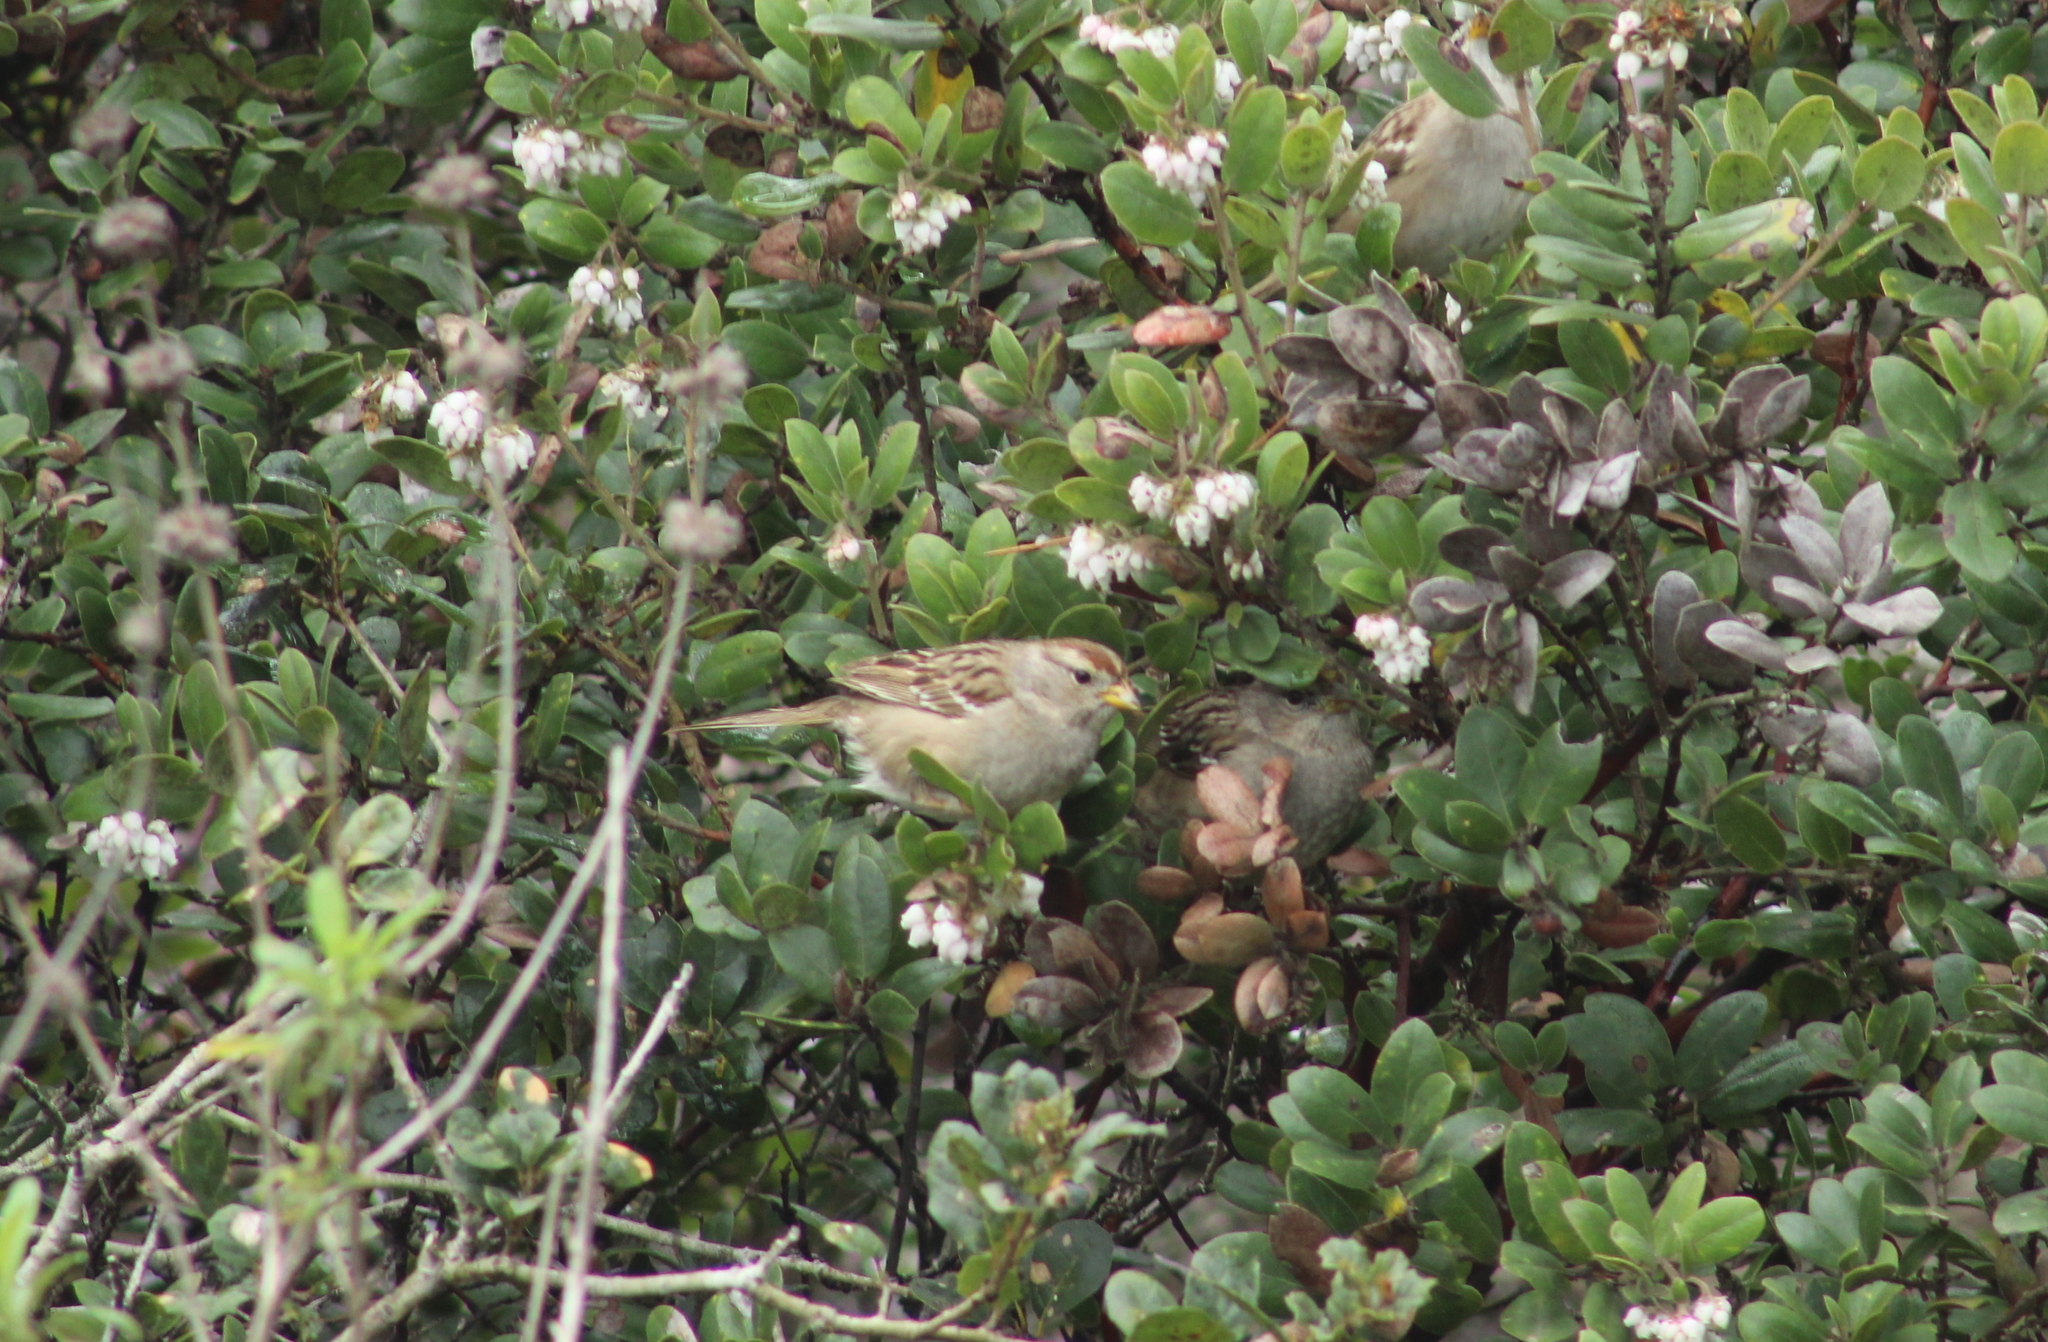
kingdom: Animalia
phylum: Chordata
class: Aves
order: Passeriformes
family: Passerellidae
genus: Zonotrichia
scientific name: Zonotrichia leucophrys
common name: White-crowned sparrow
